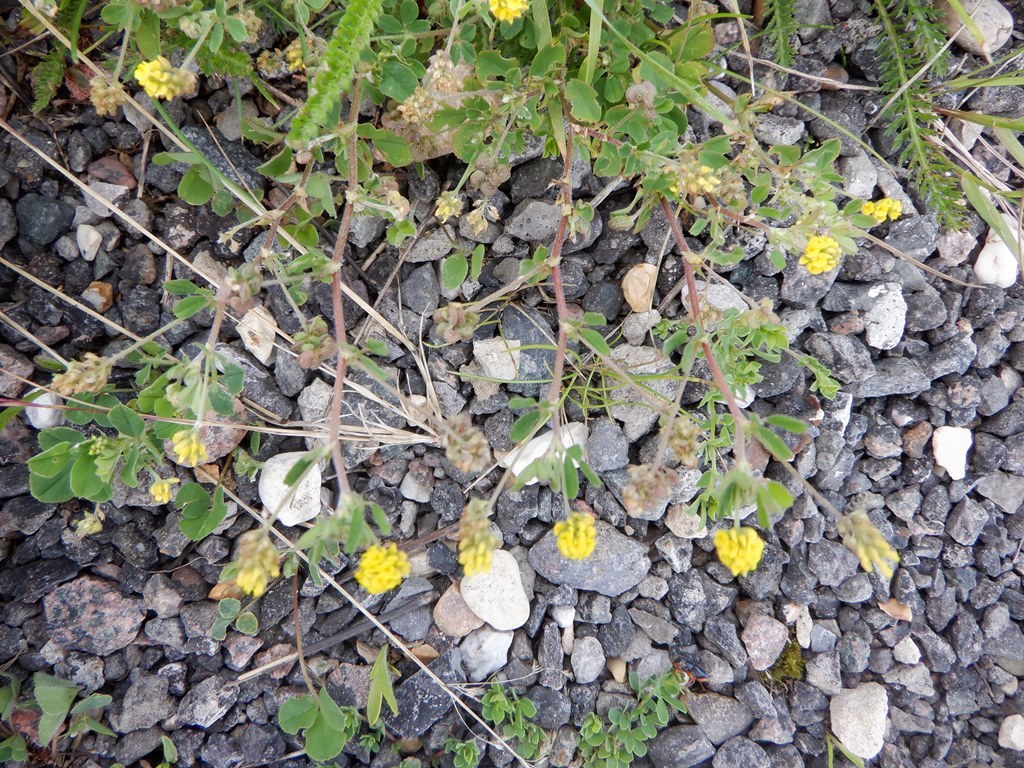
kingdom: Plantae
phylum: Tracheophyta
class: Magnoliopsida
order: Fabales
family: Fabaceae
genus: Medicago
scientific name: Medicago lupulina
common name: Black medick
